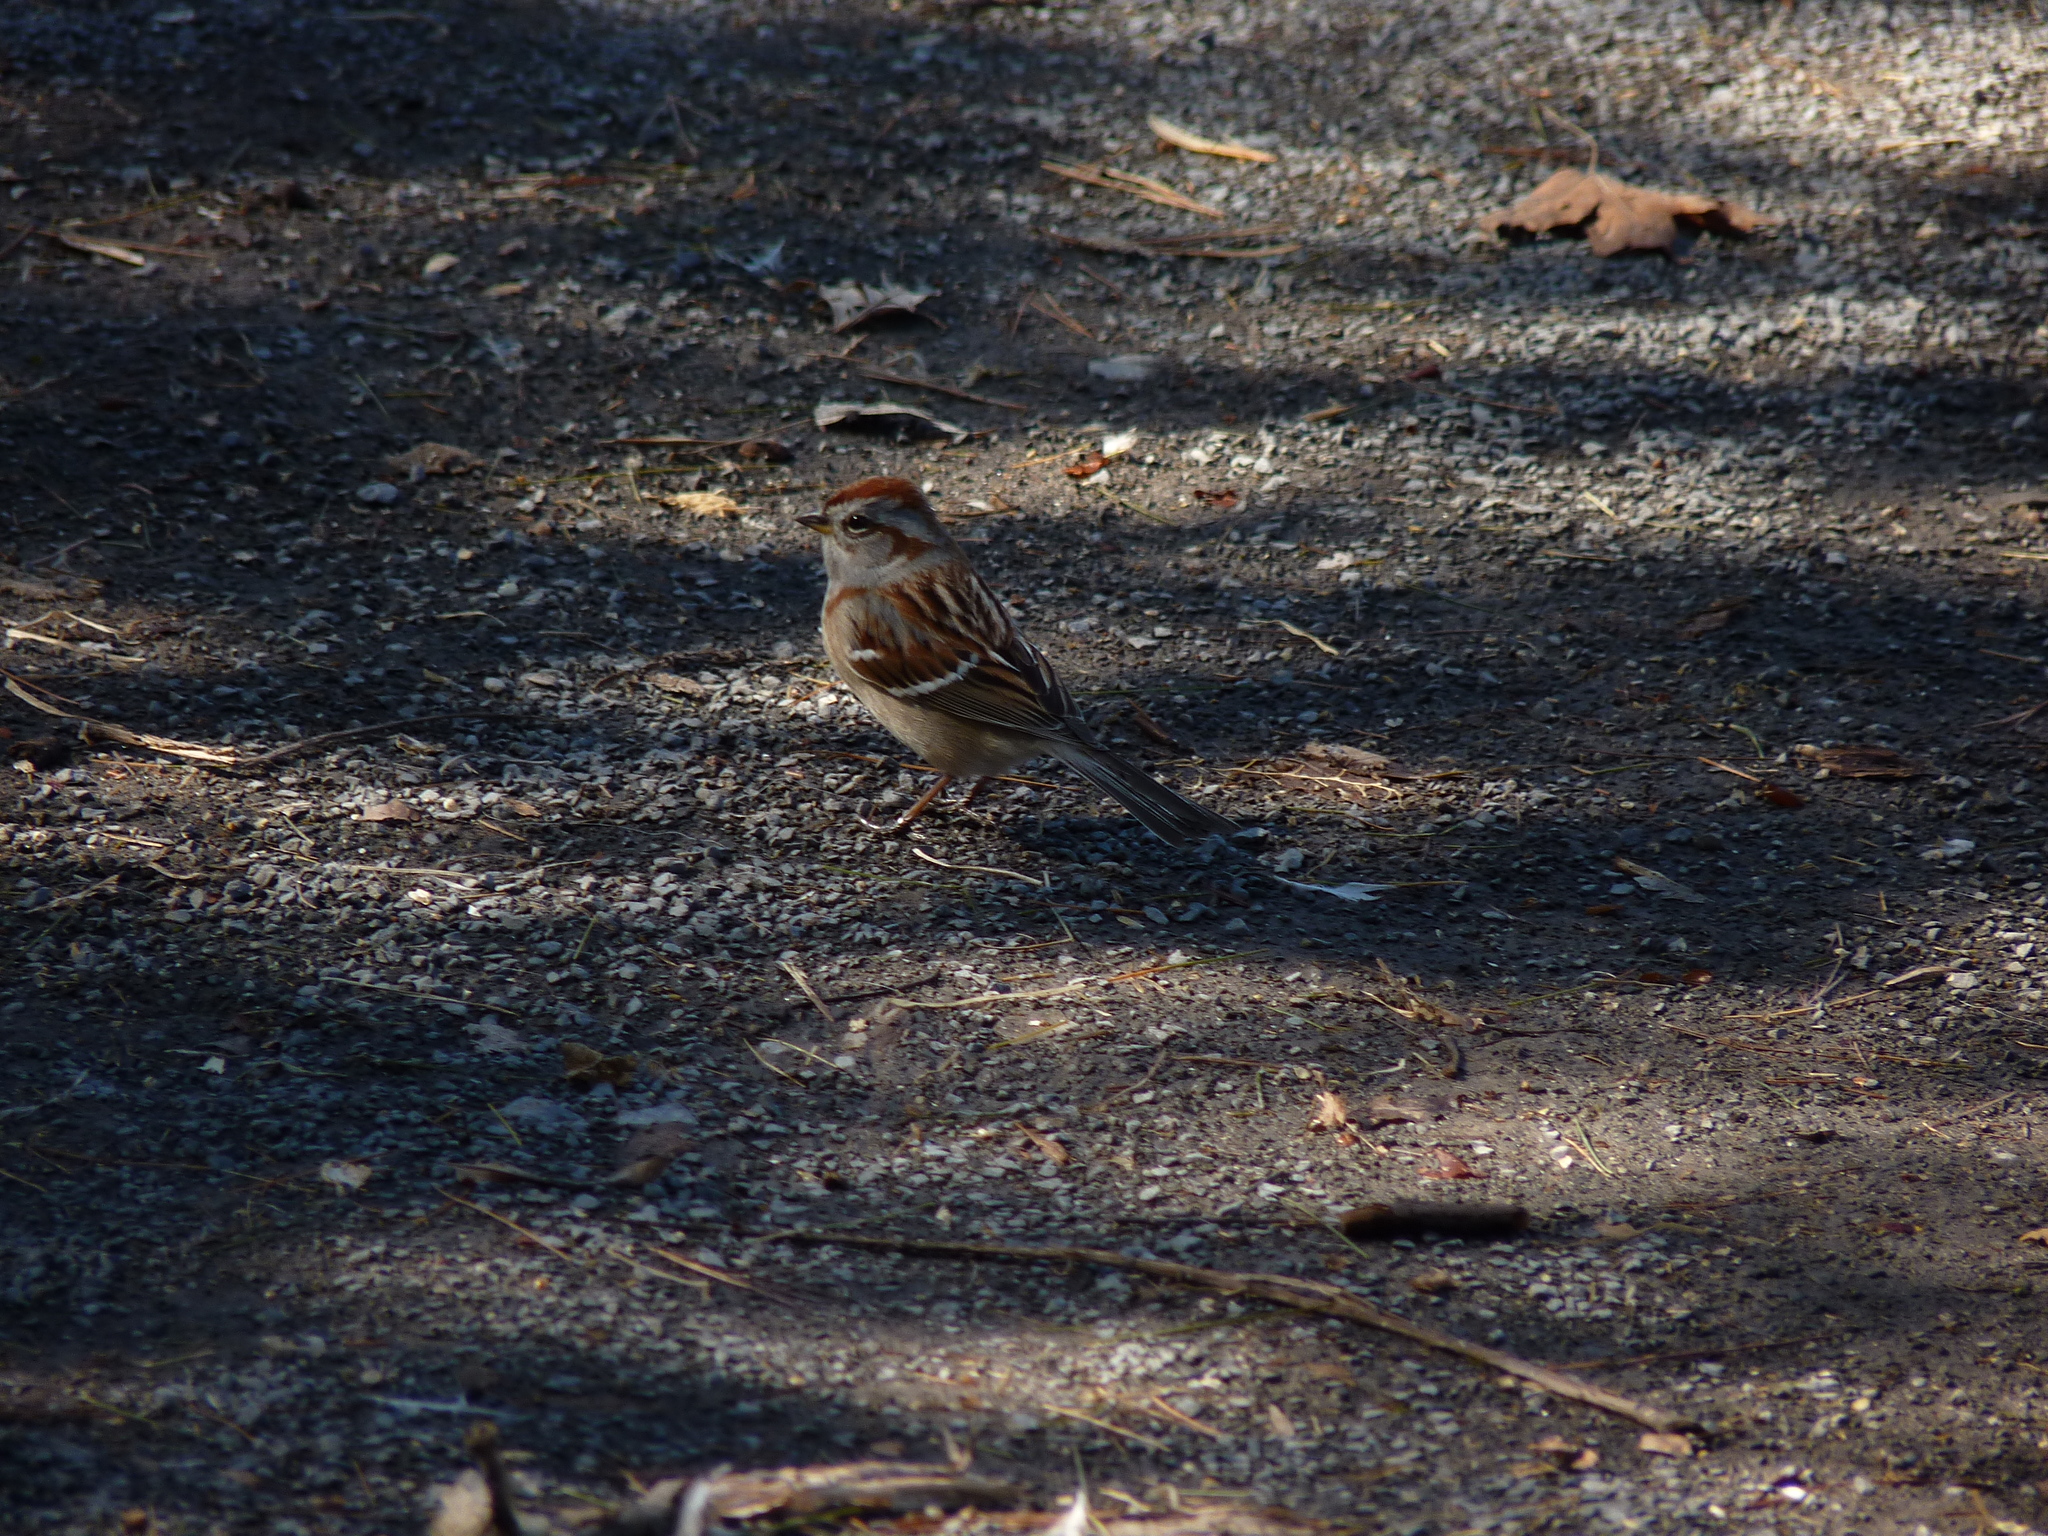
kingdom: Animalia
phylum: Chordata
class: Aves
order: Passeriformes
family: Passerellidae
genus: Spizelloides
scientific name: Spizelloides arborea
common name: American tree sparrow
